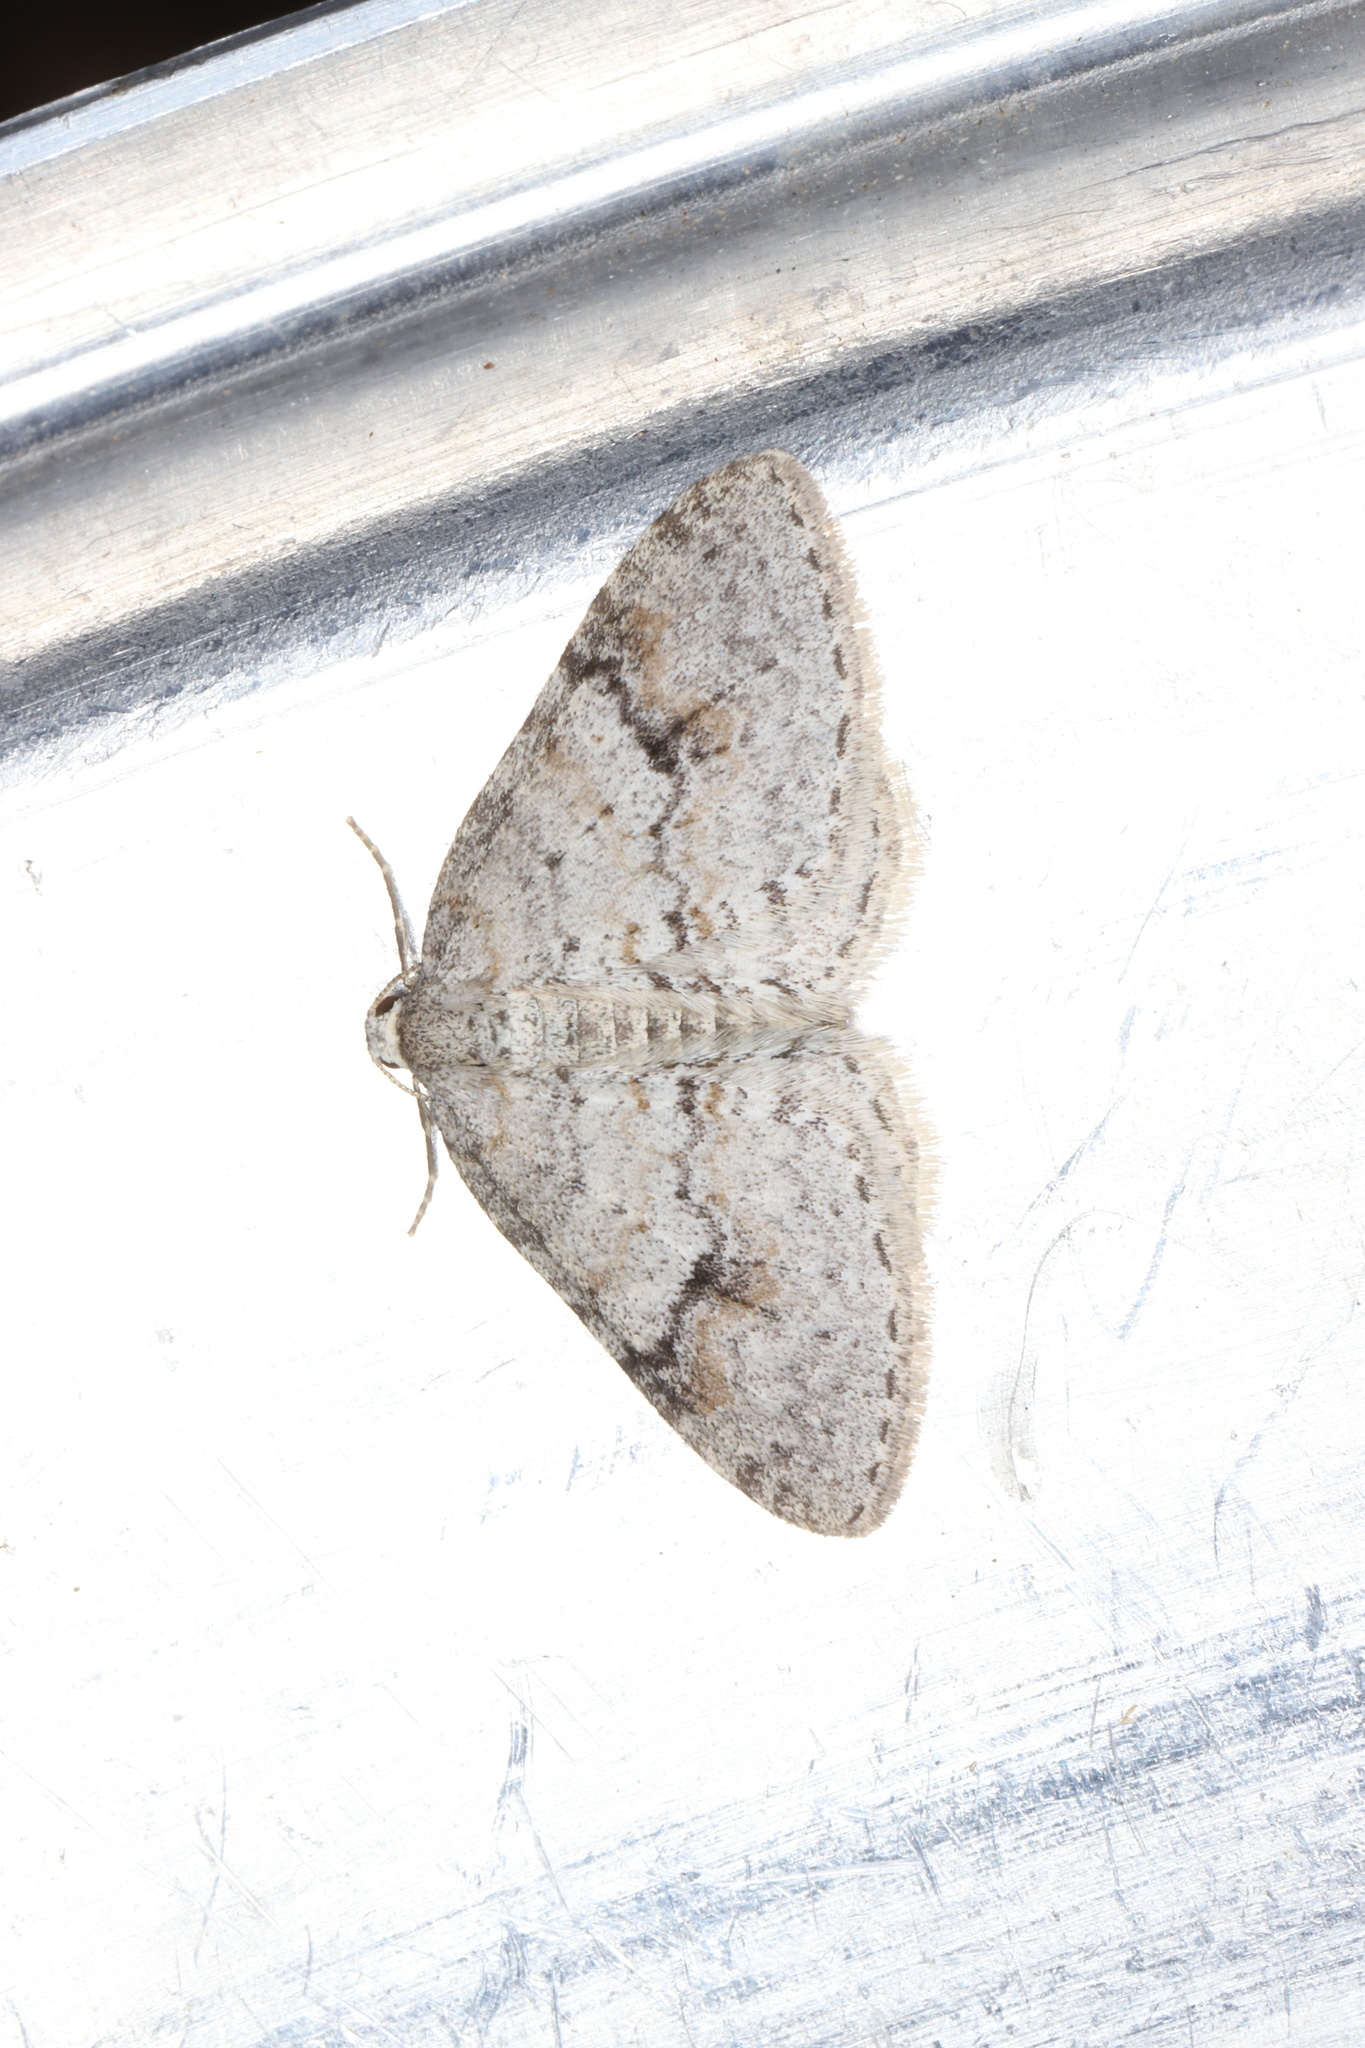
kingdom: Animalia
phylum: Arthropoda
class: Insecta
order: Lepidoptera
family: Geometridae
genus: Venusia
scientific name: Venusia comptaria
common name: Brown-shaded carpet
